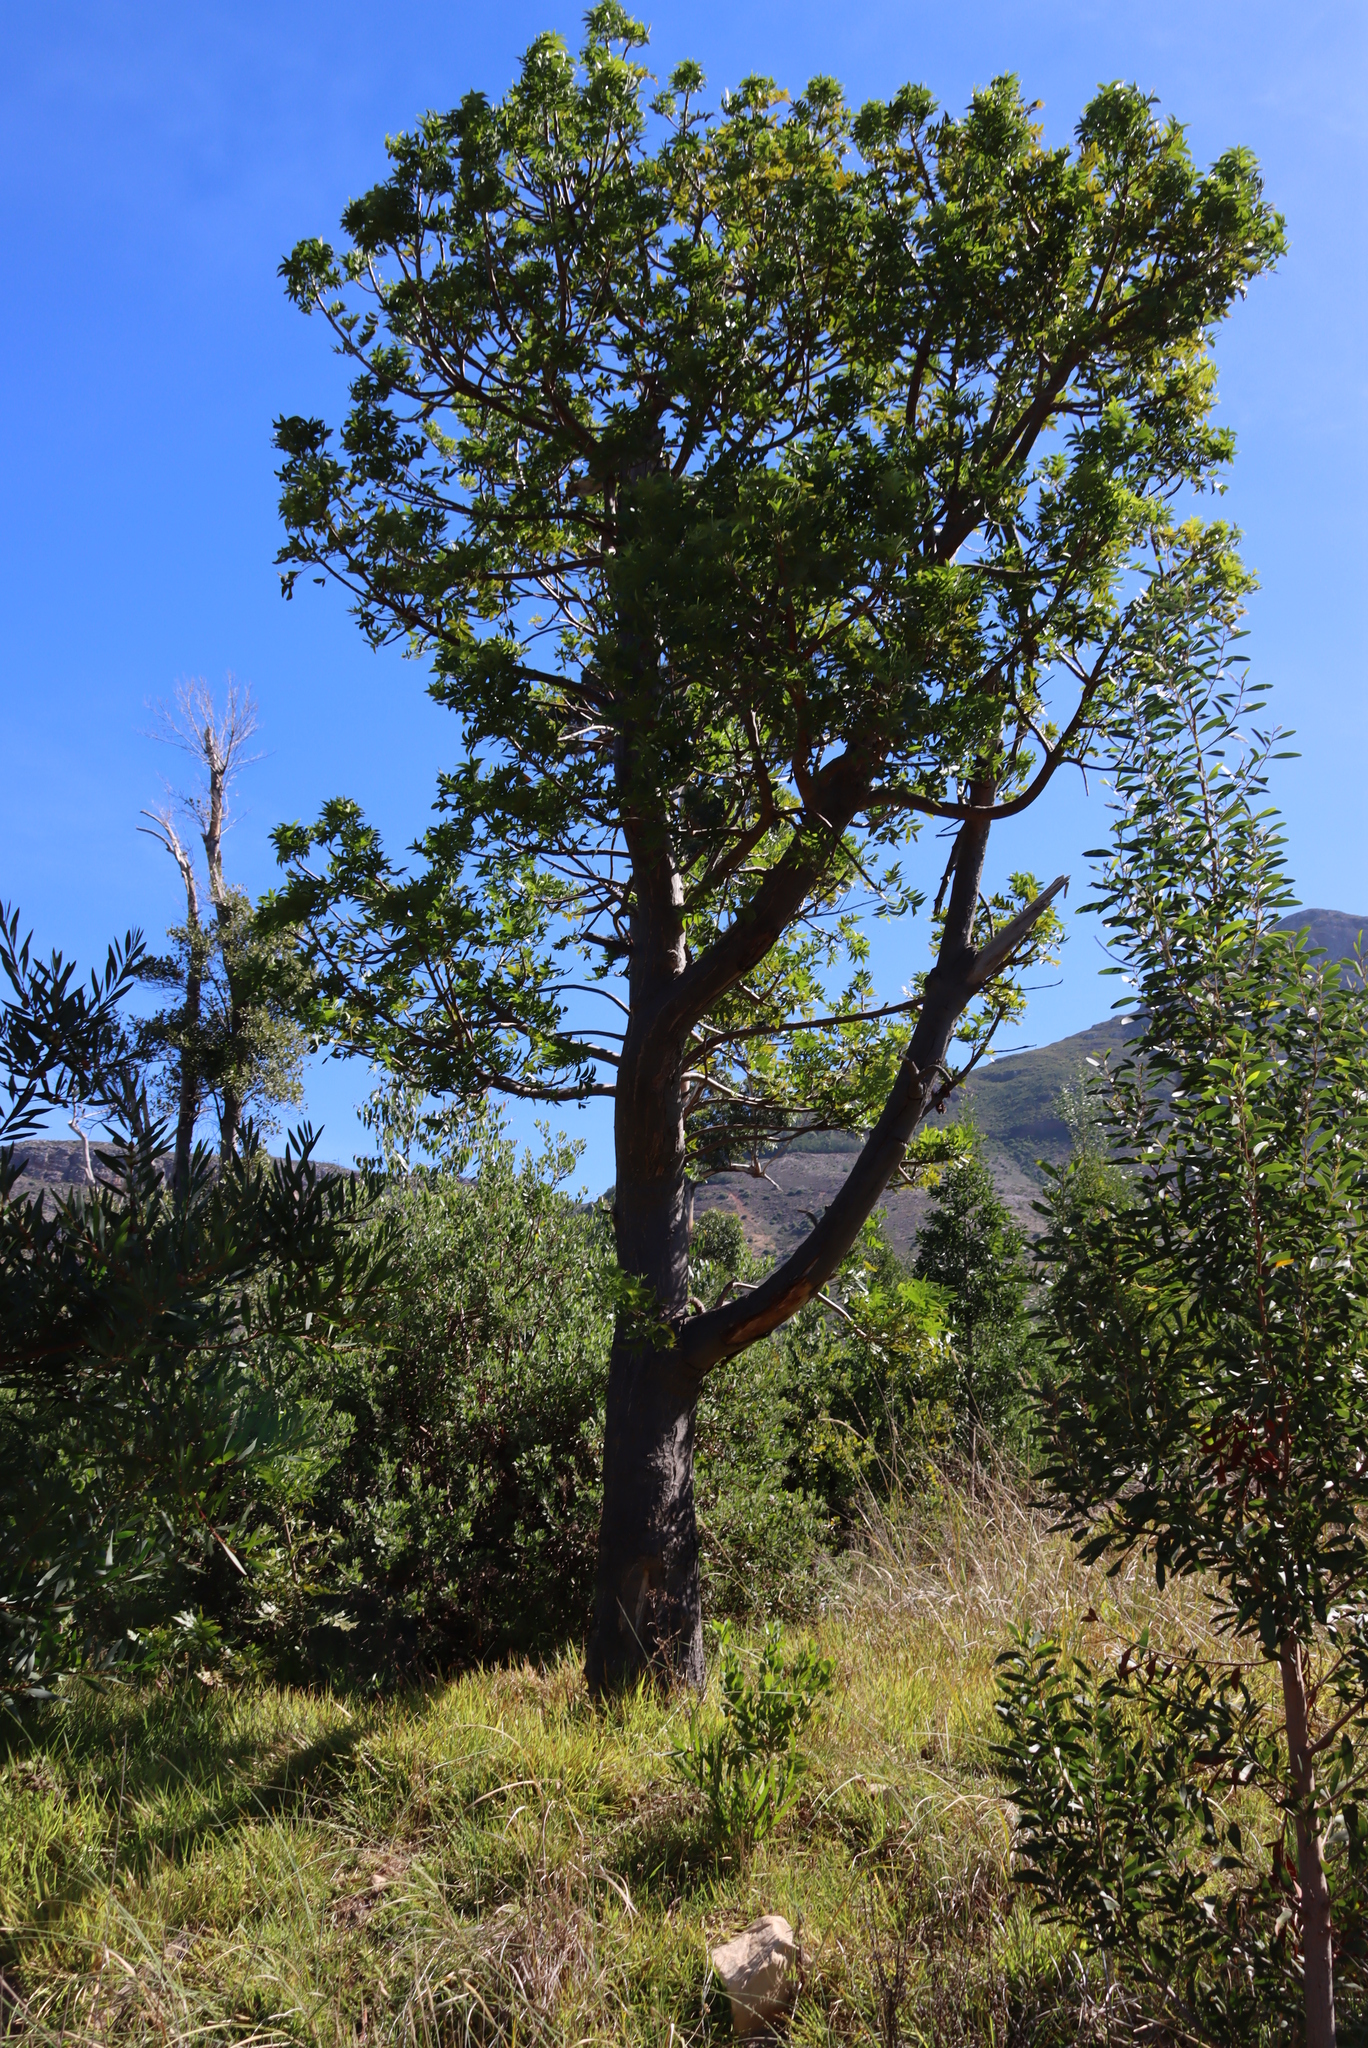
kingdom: Plantae
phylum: Tracheophyta
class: Magnoliopsida
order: Sapindales
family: Meliaceae
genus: Ekebergia
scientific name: Ekebergia capensis
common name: Cape-ash
